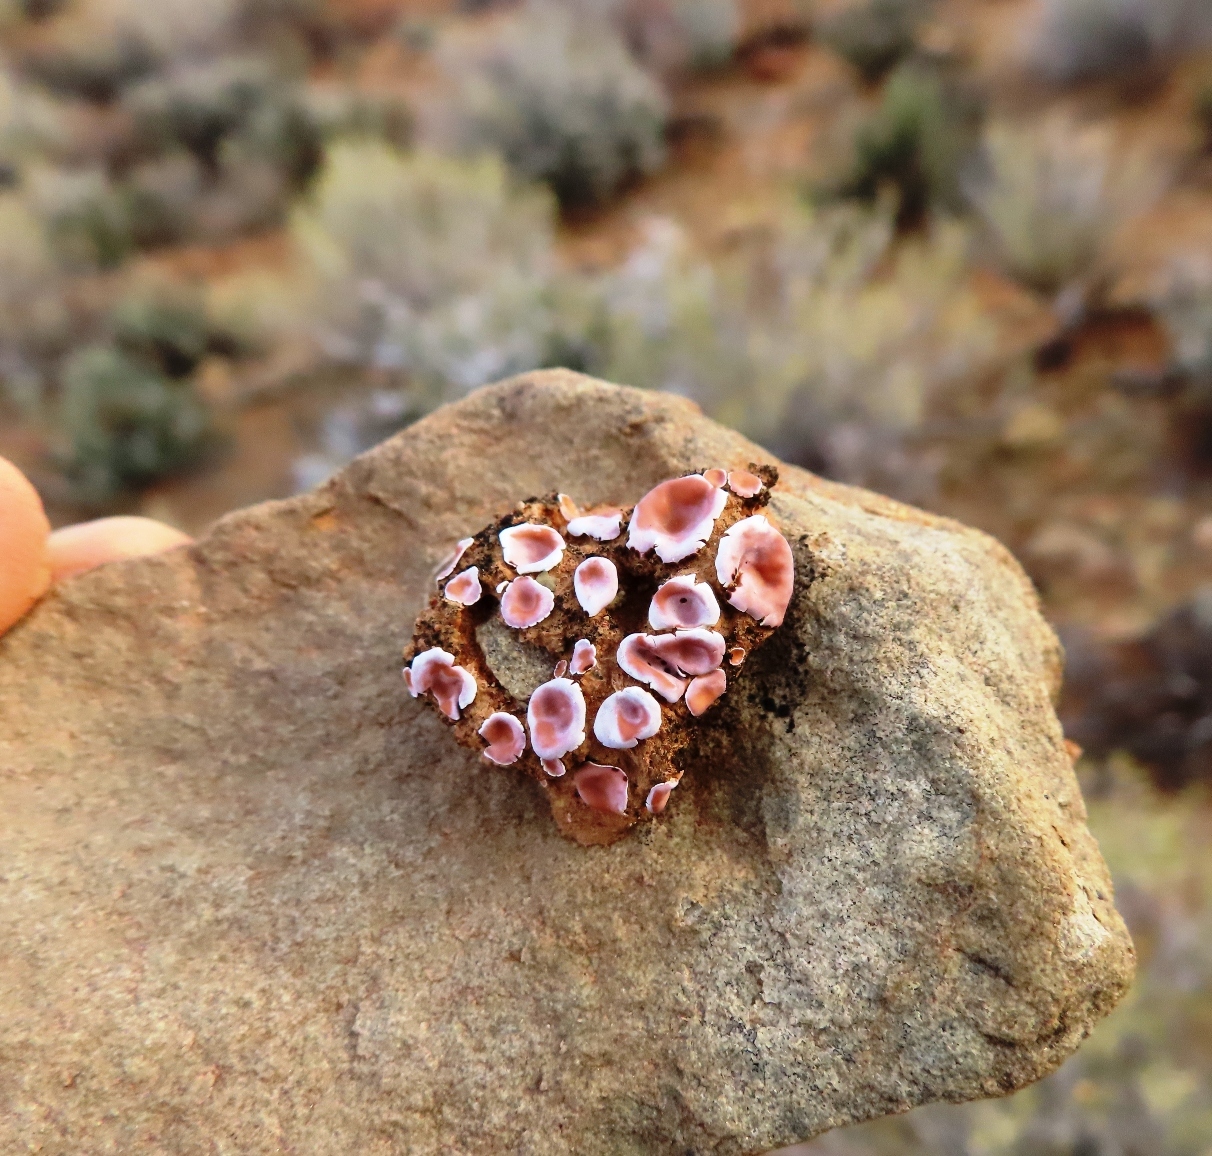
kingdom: Fungi
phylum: Ascomycota
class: Lecanoromycetes
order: Lecanorales
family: Psoraceae
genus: Psora
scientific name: Psora crenata
